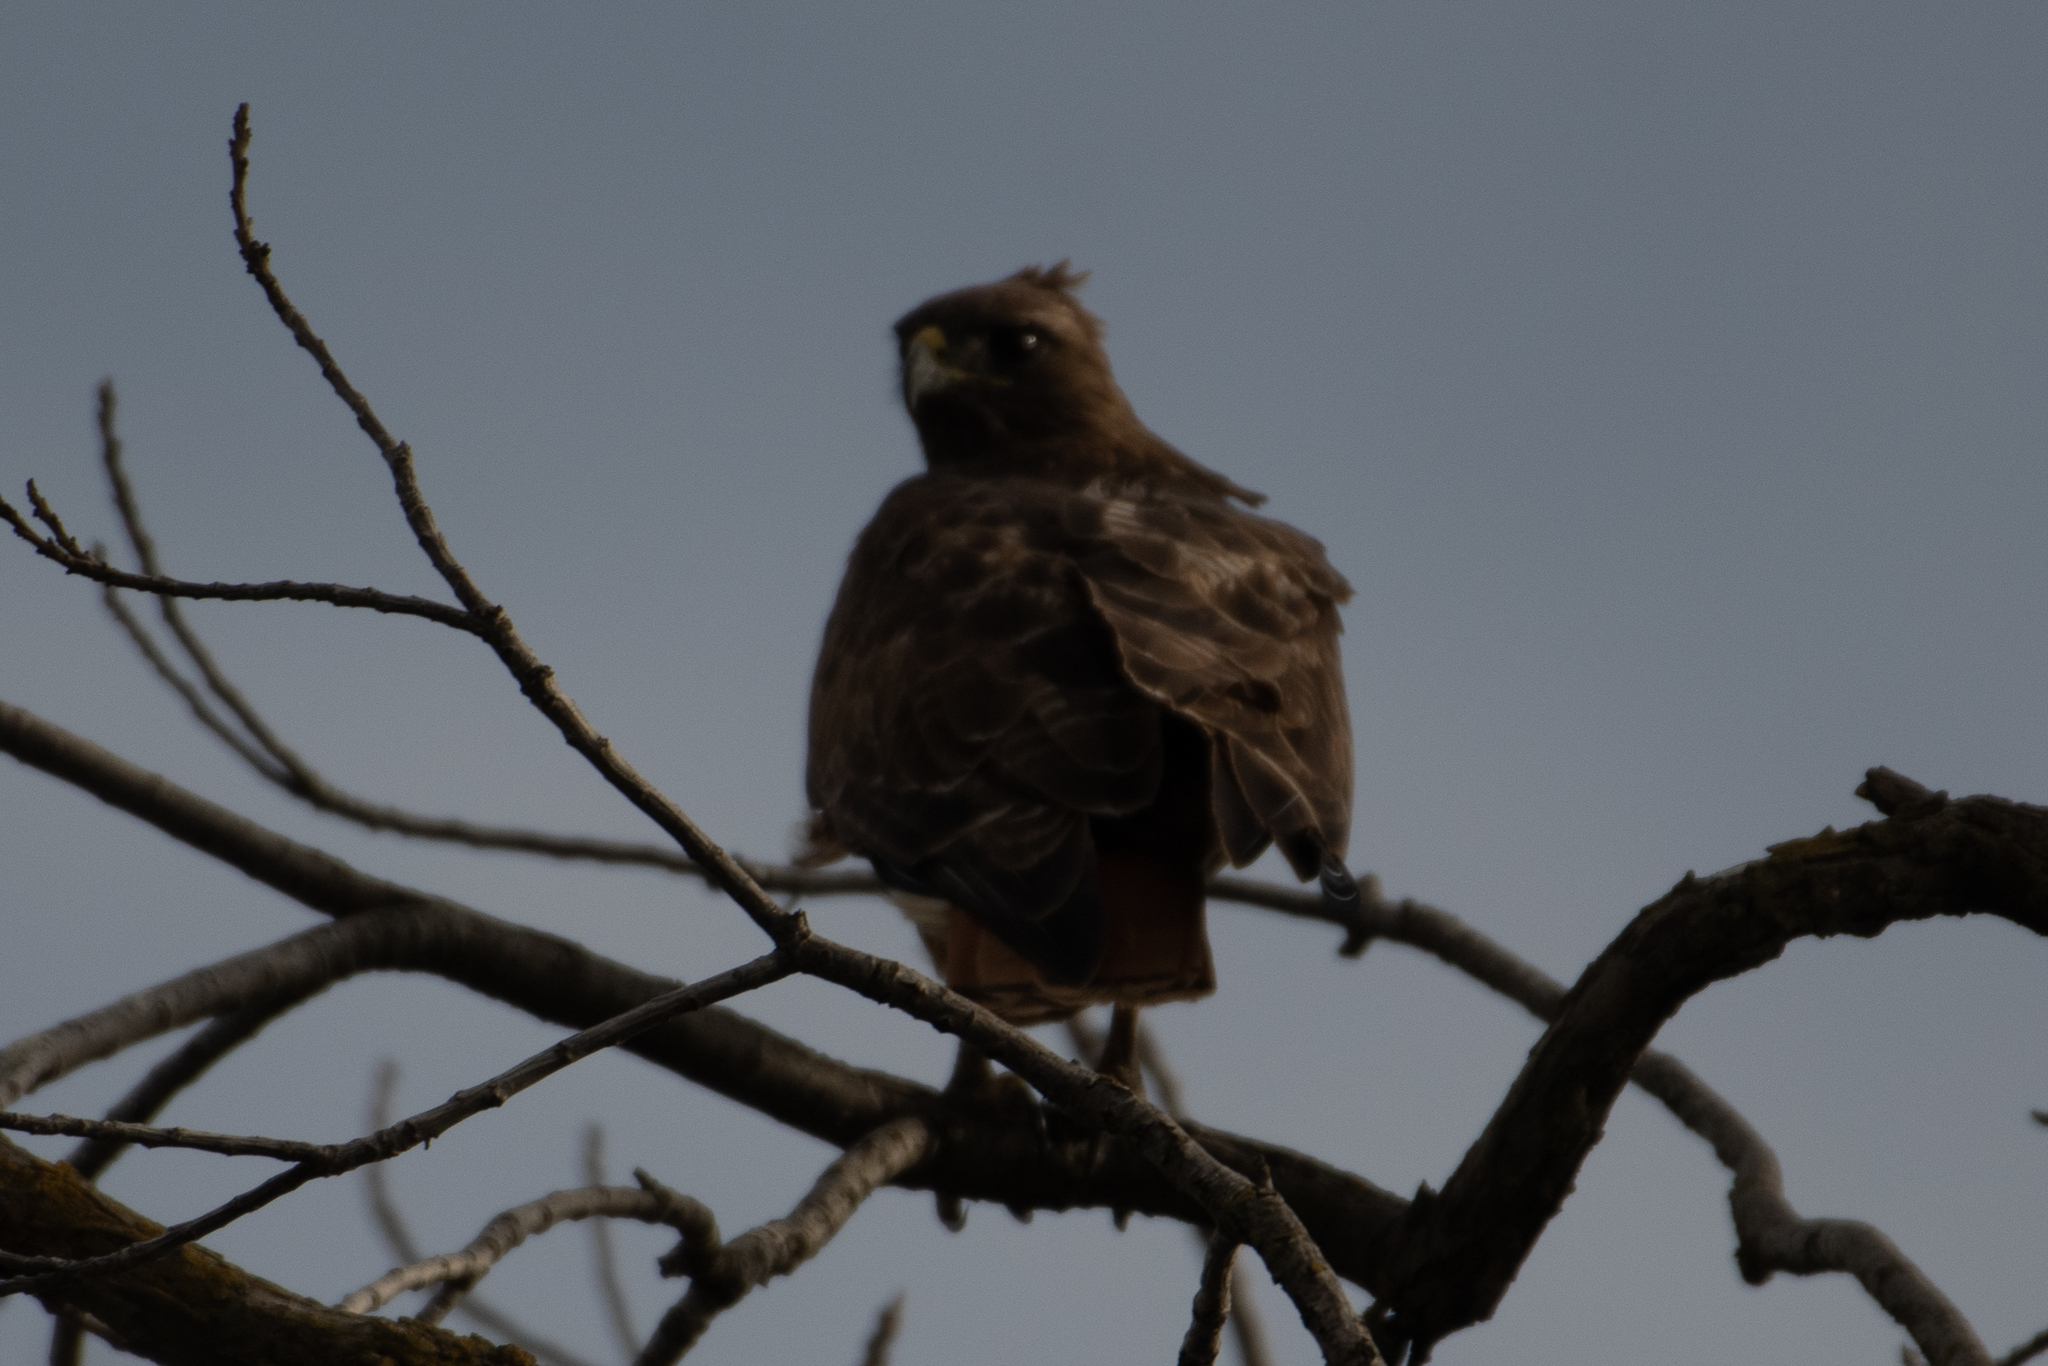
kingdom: Animalia
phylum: Chordata
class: Aves
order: Accipitriformes
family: Accipitridae
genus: Buteo
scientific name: Buteo jamaicensis
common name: Red-tailed hawk
